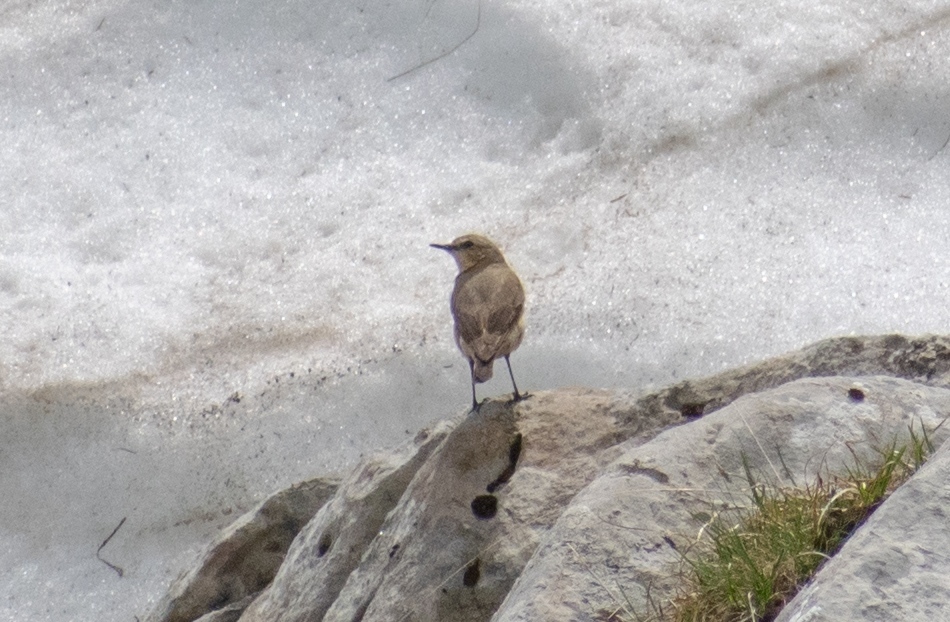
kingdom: Animalia
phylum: Chordata
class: Aves
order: Passeriformes
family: Motacillidae
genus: Anthus
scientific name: Anthus spinoletta
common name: Water pipit
